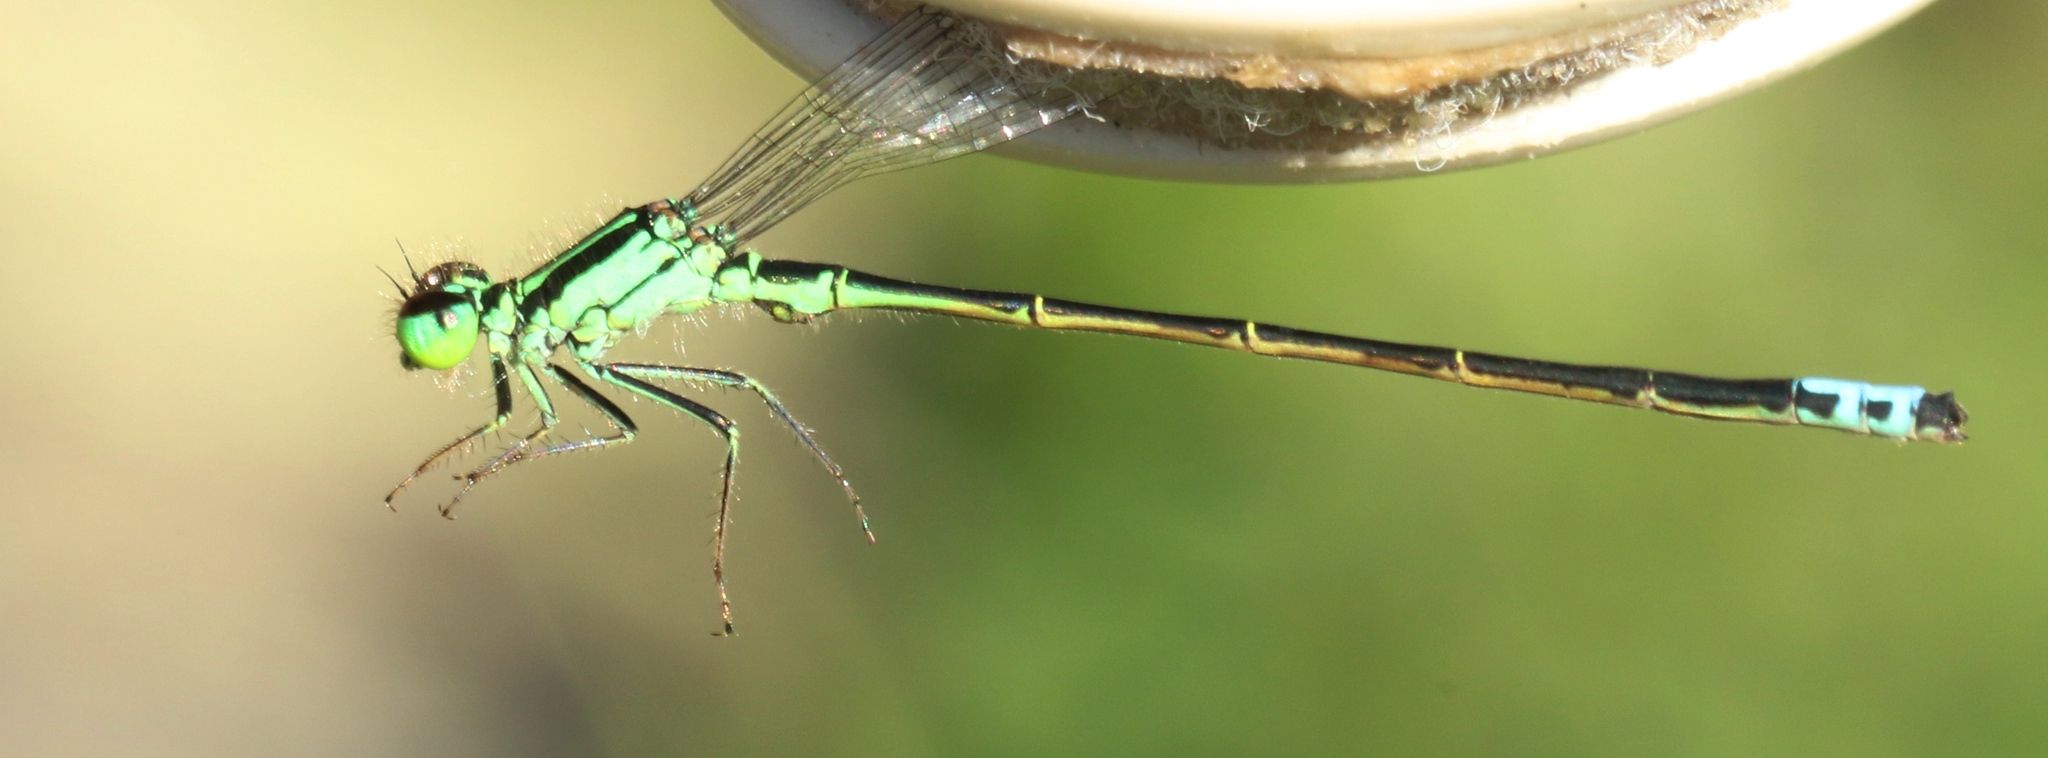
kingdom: Animalia
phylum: Arthropoda
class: Insecta
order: Odonata
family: Coenagrionidae
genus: Ischnura
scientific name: Ischnura verticalis
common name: Eastern forktail
